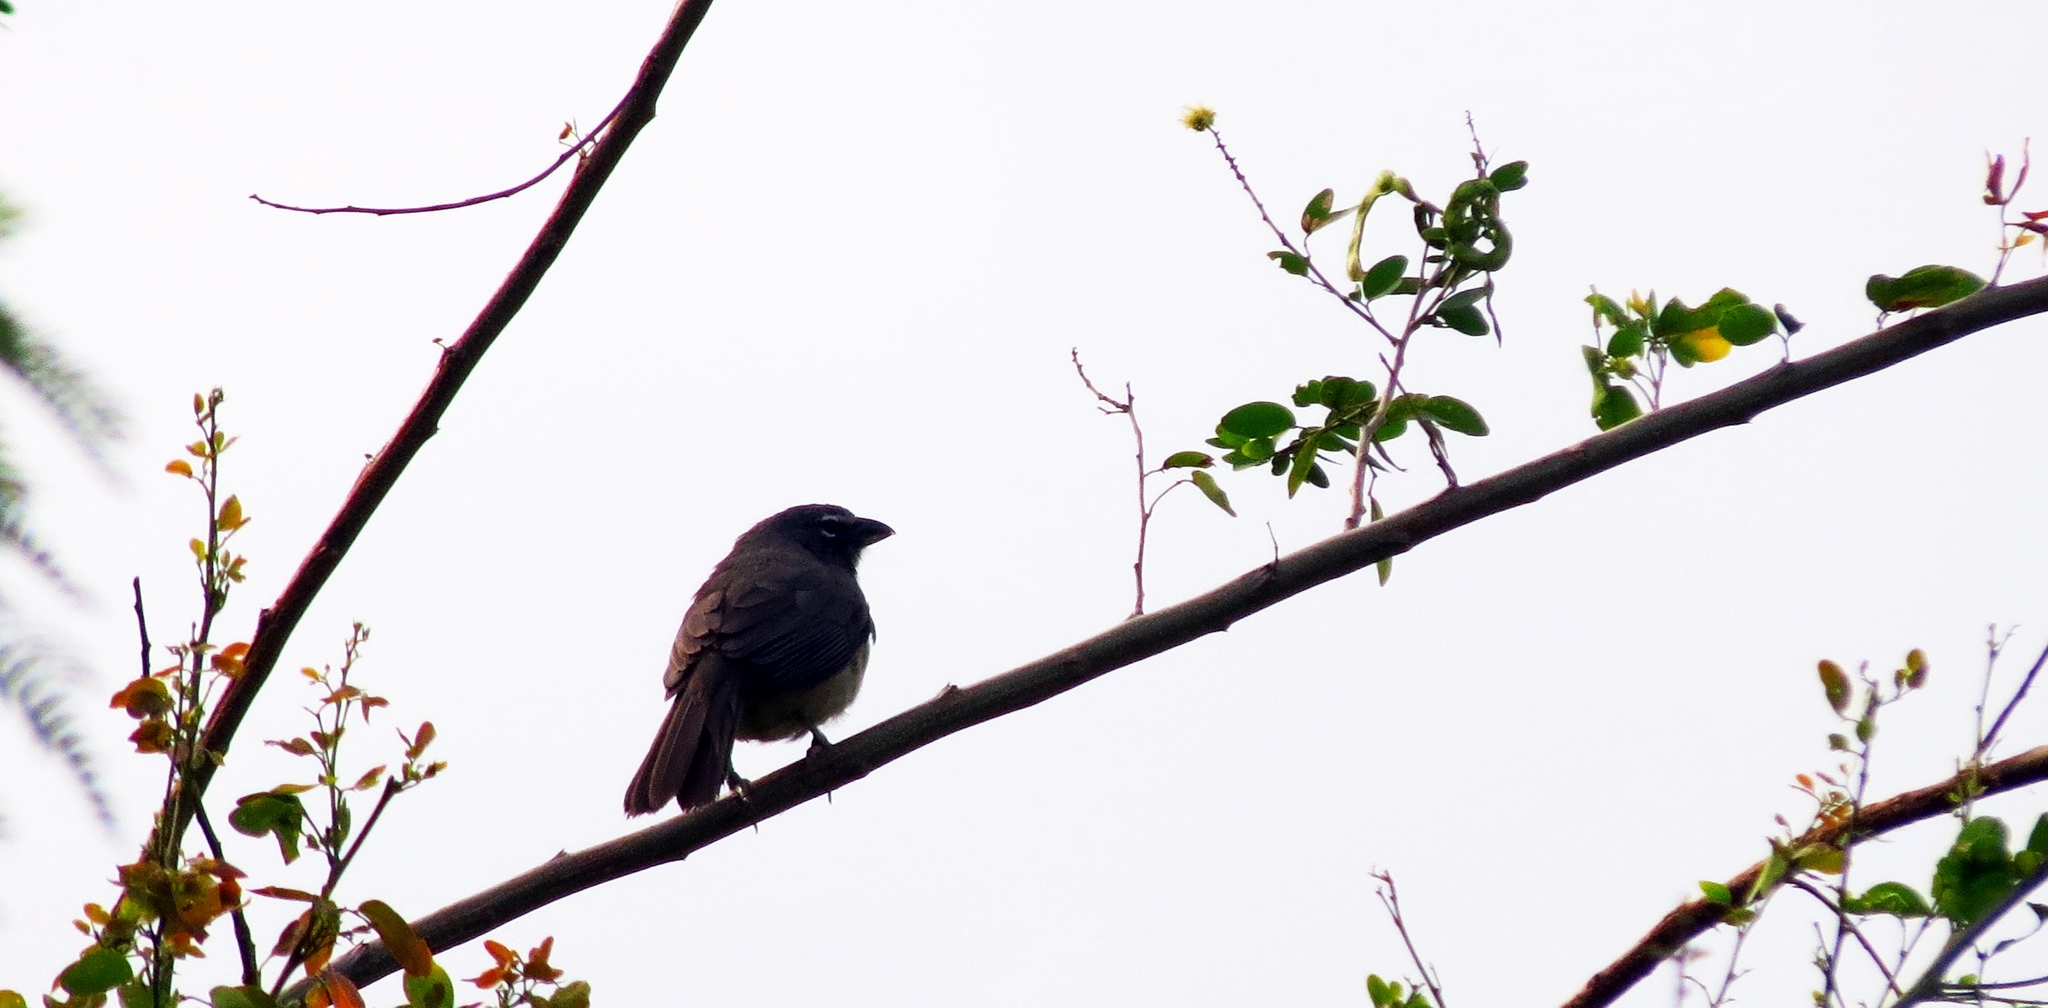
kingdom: Animalia
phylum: Chordata
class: Aves
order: Passeriformes
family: Thraupidae
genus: Saltator
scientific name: Saltator olivascens
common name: Caribbean grey saltator
